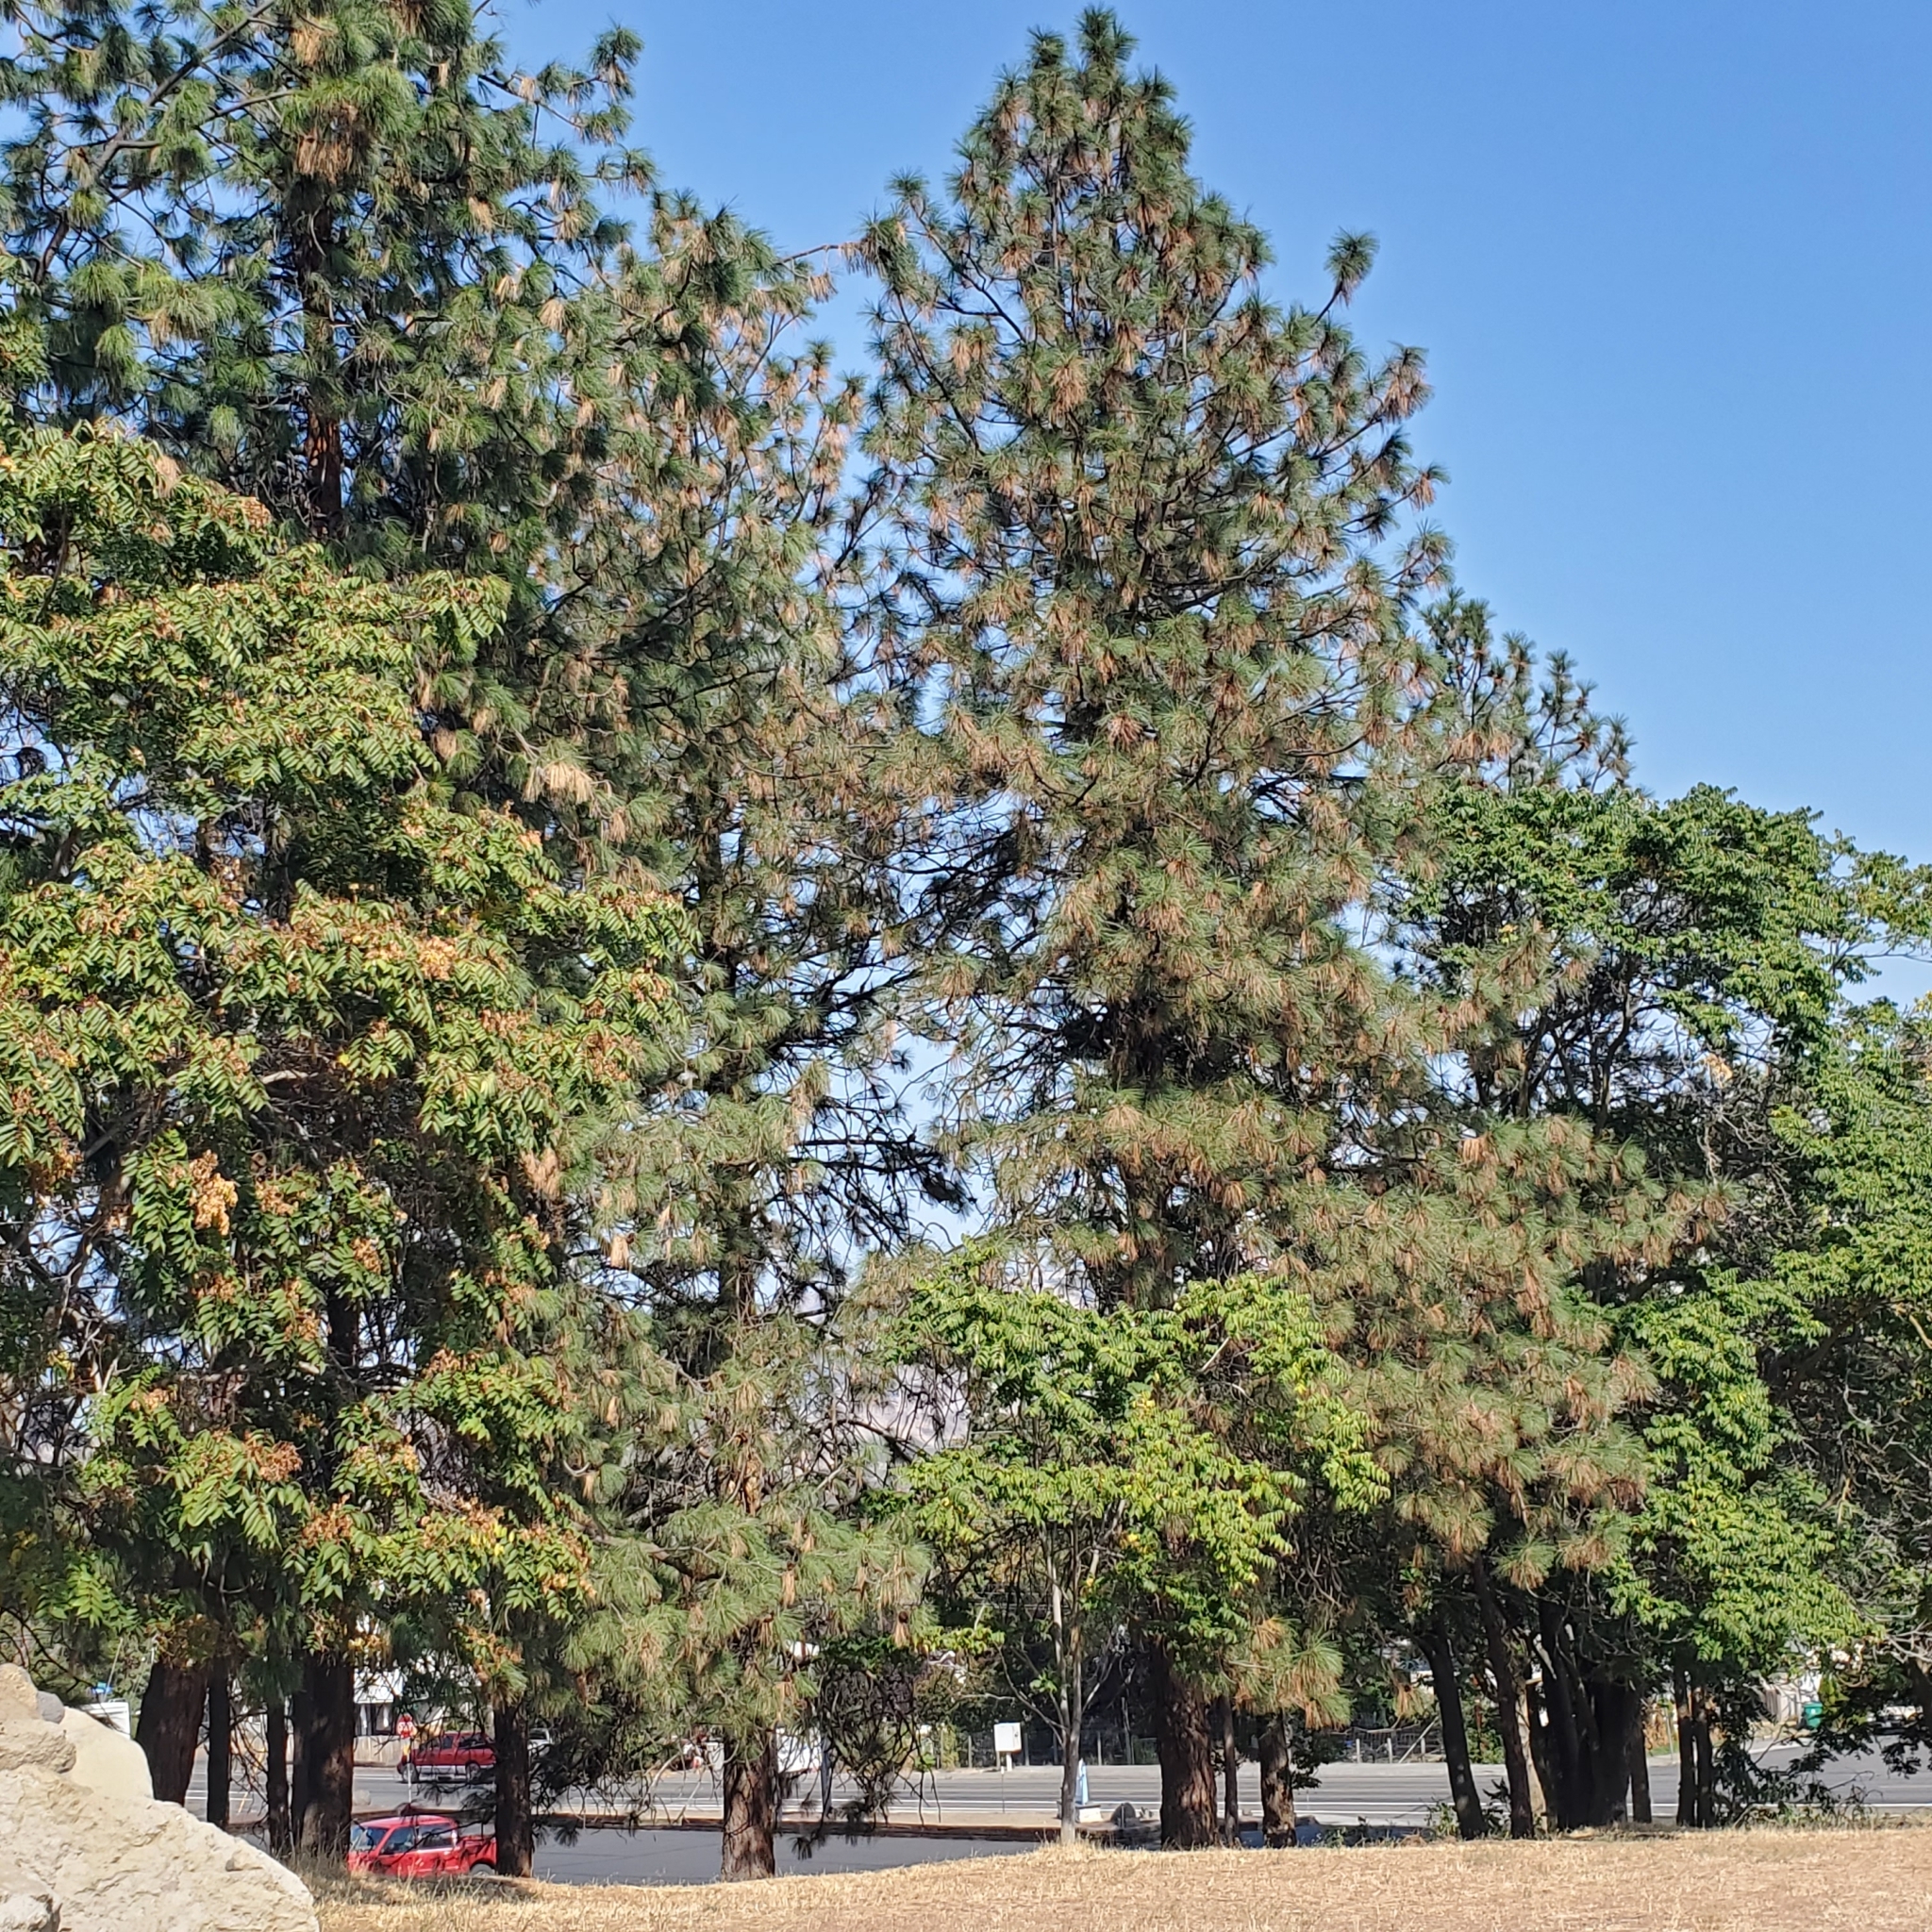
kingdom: Plantae
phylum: Tracheophyta
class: Pinopsida
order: Pinales
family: Pinaceae
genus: Pinus
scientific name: Pinus ponderosa
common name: Western yellow-pine
